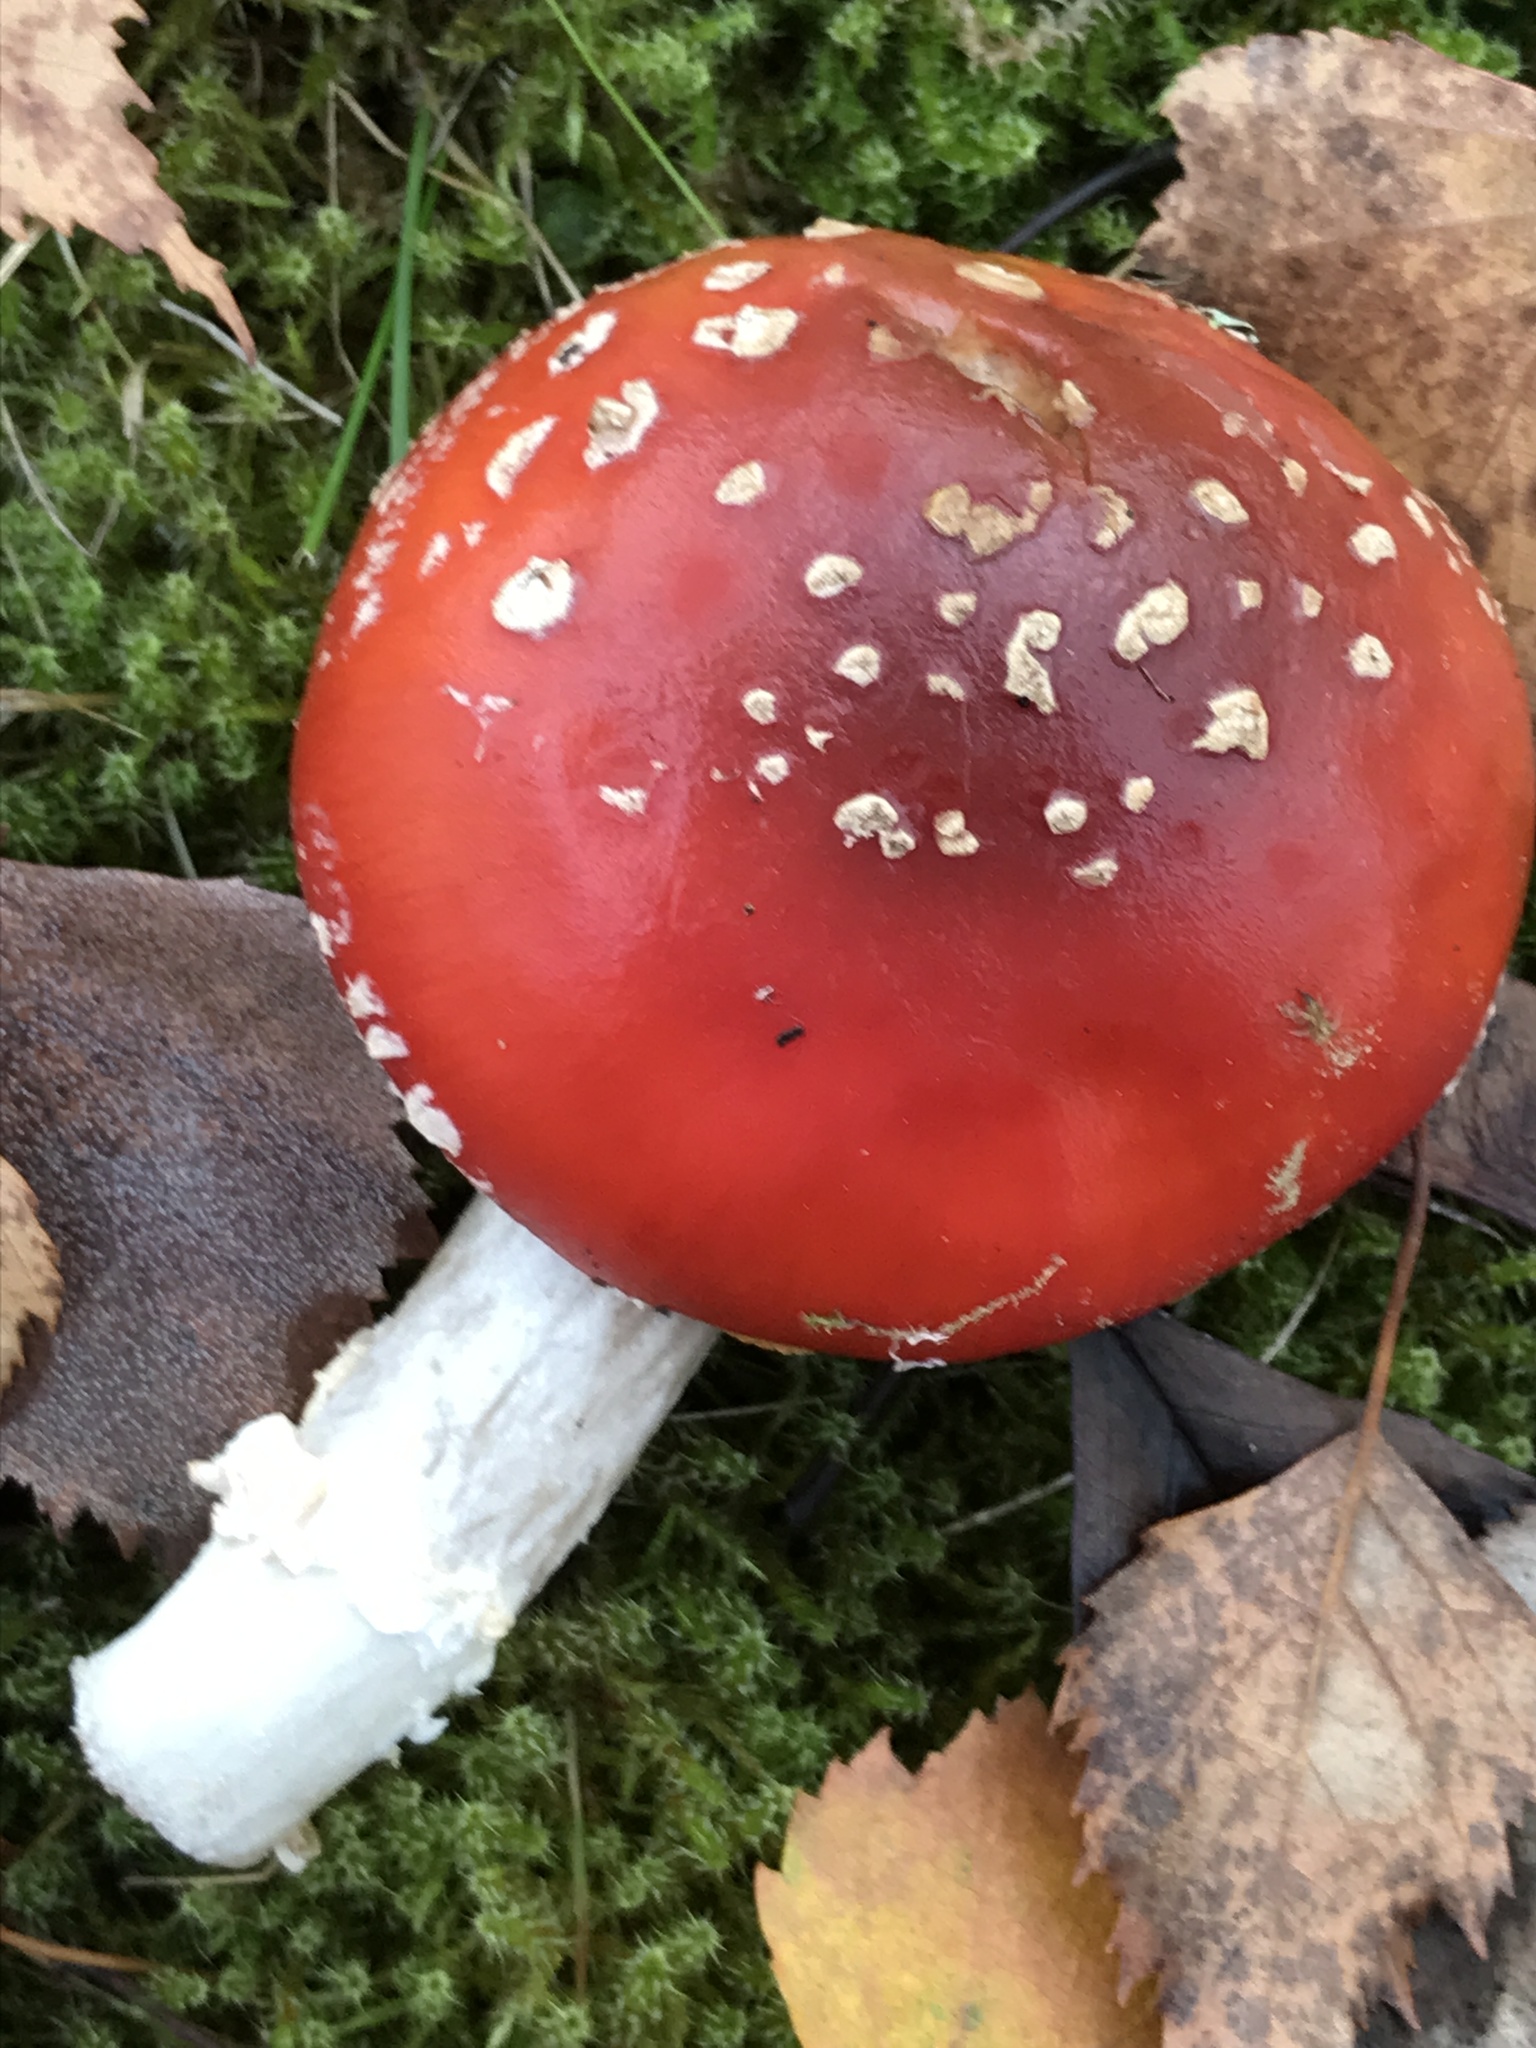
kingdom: Fungi
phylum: Basidiomycota
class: Agaricomycetes
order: Agaricales
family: Amanitaceae
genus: Amanita
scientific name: Amanita muscaria
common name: Fly agaric
